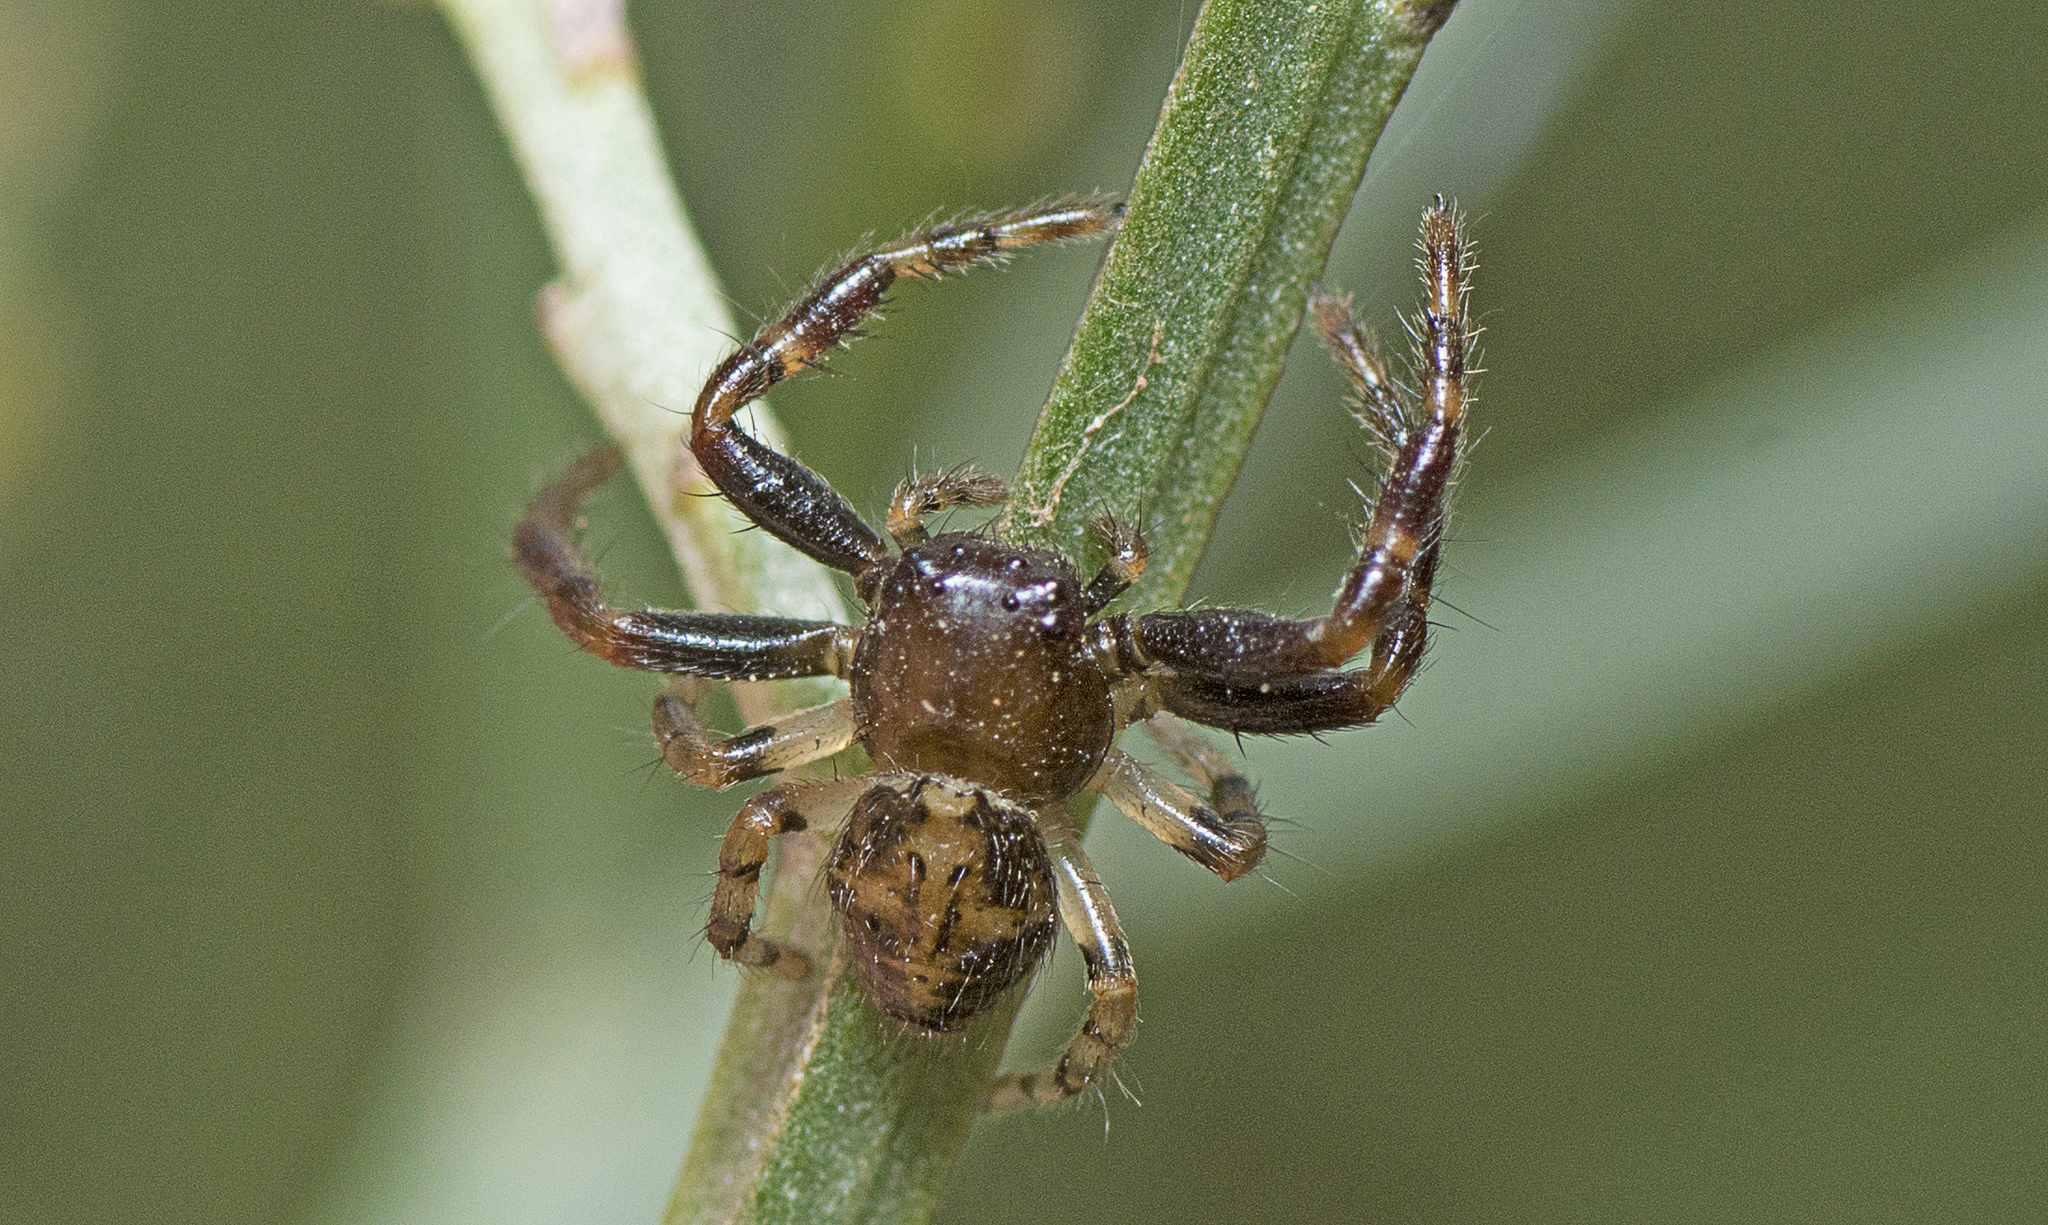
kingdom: Animalia
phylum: Arthropoda
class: Arachnida
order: Araneae
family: Thomisidae
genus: Xysticus
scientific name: Xysticus bimaculatus
